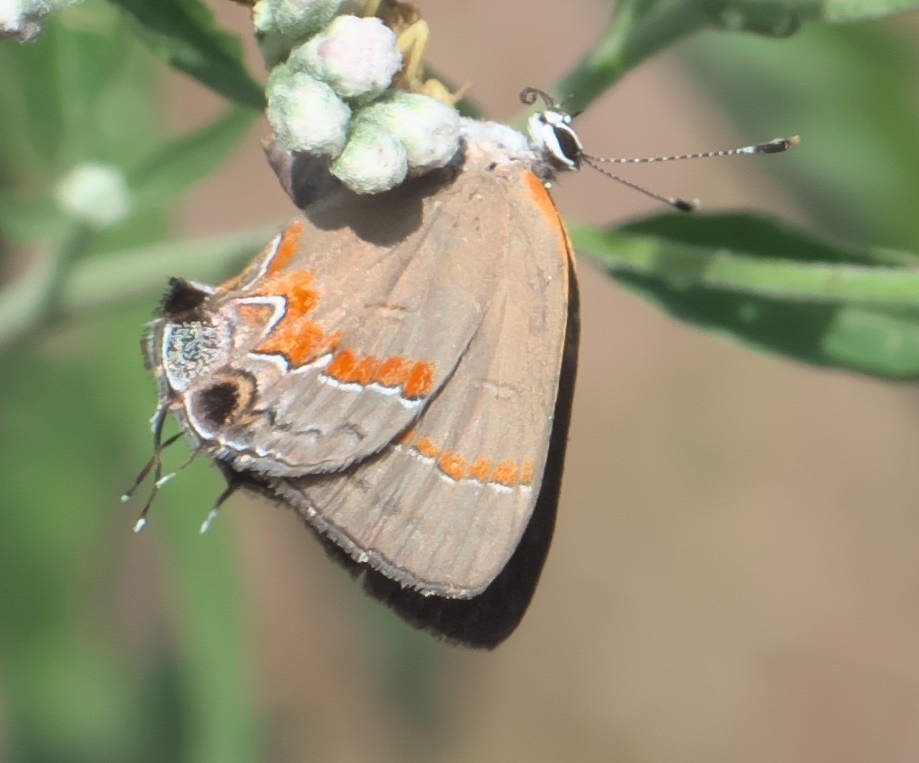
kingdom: Animalia
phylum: Arthropoda
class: Insecta
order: Lepidoptera
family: Lycaenidae
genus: Calycopis
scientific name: Calycopis cecrops
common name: Red-banded hairstreak
